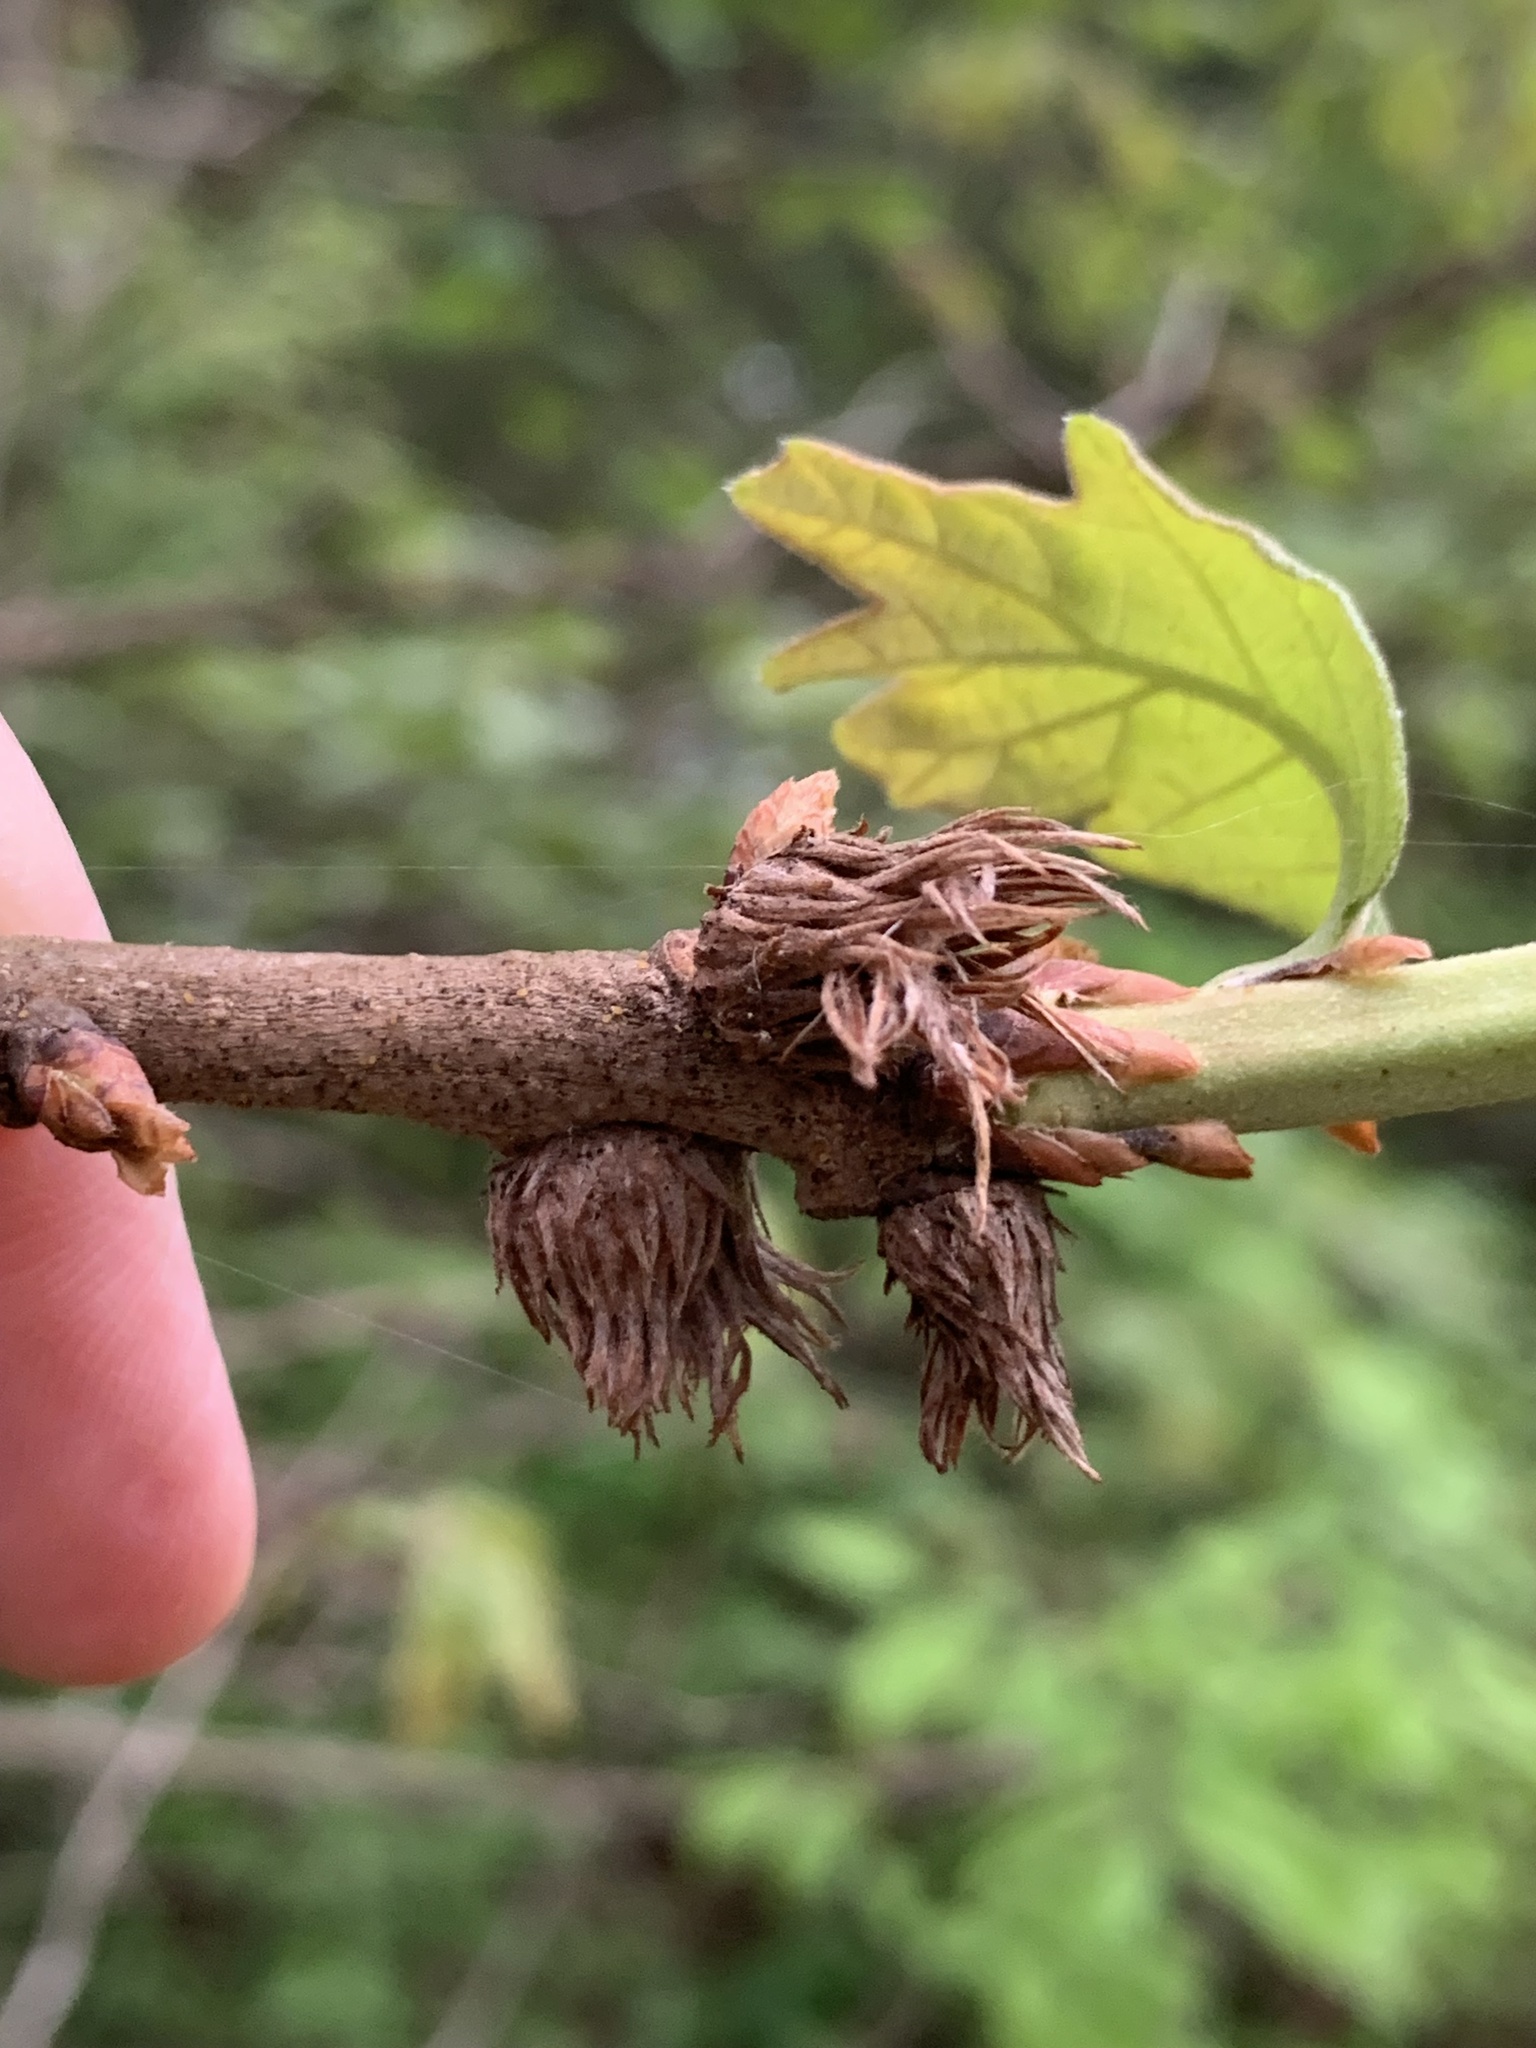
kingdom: Animalia
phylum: Arthropoda
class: Insecta
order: Hymenoptera
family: Cynipidae
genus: Andricus
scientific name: Andricus
